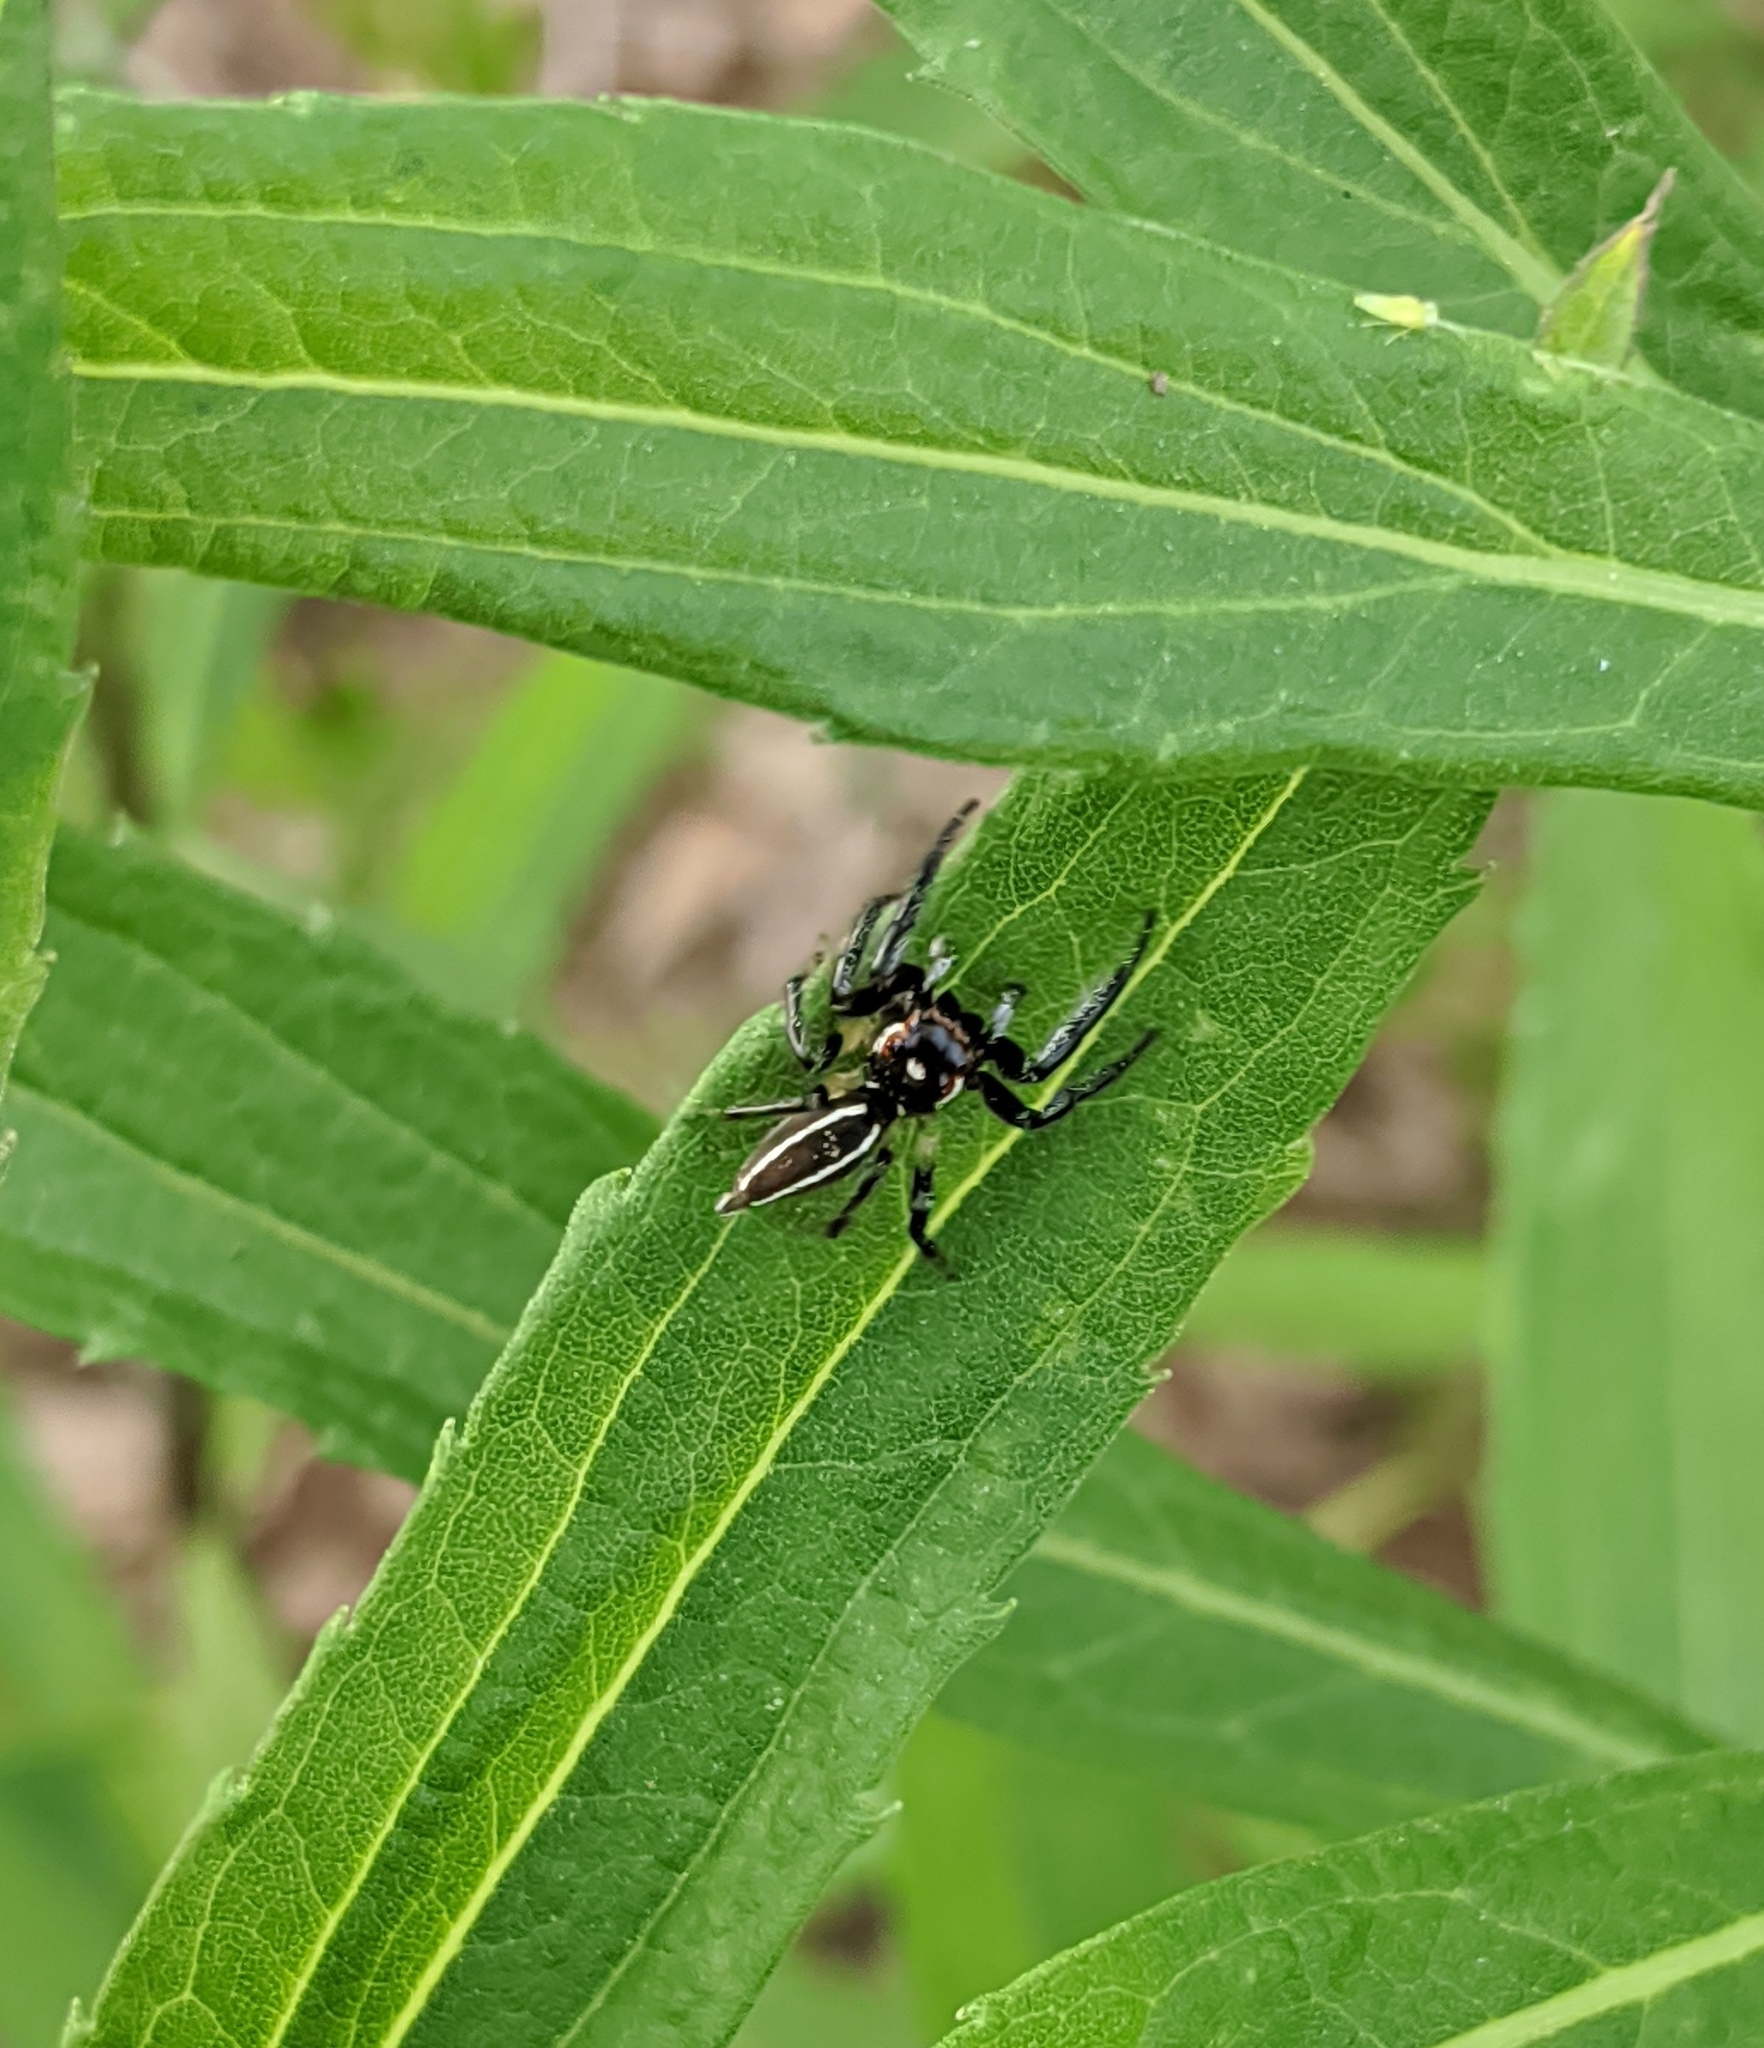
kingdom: Animalia
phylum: Arthropoda
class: Arachnida
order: Araneae
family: Salticidae
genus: Colonus
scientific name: Colonus sylvanus
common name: Jumping spiders
